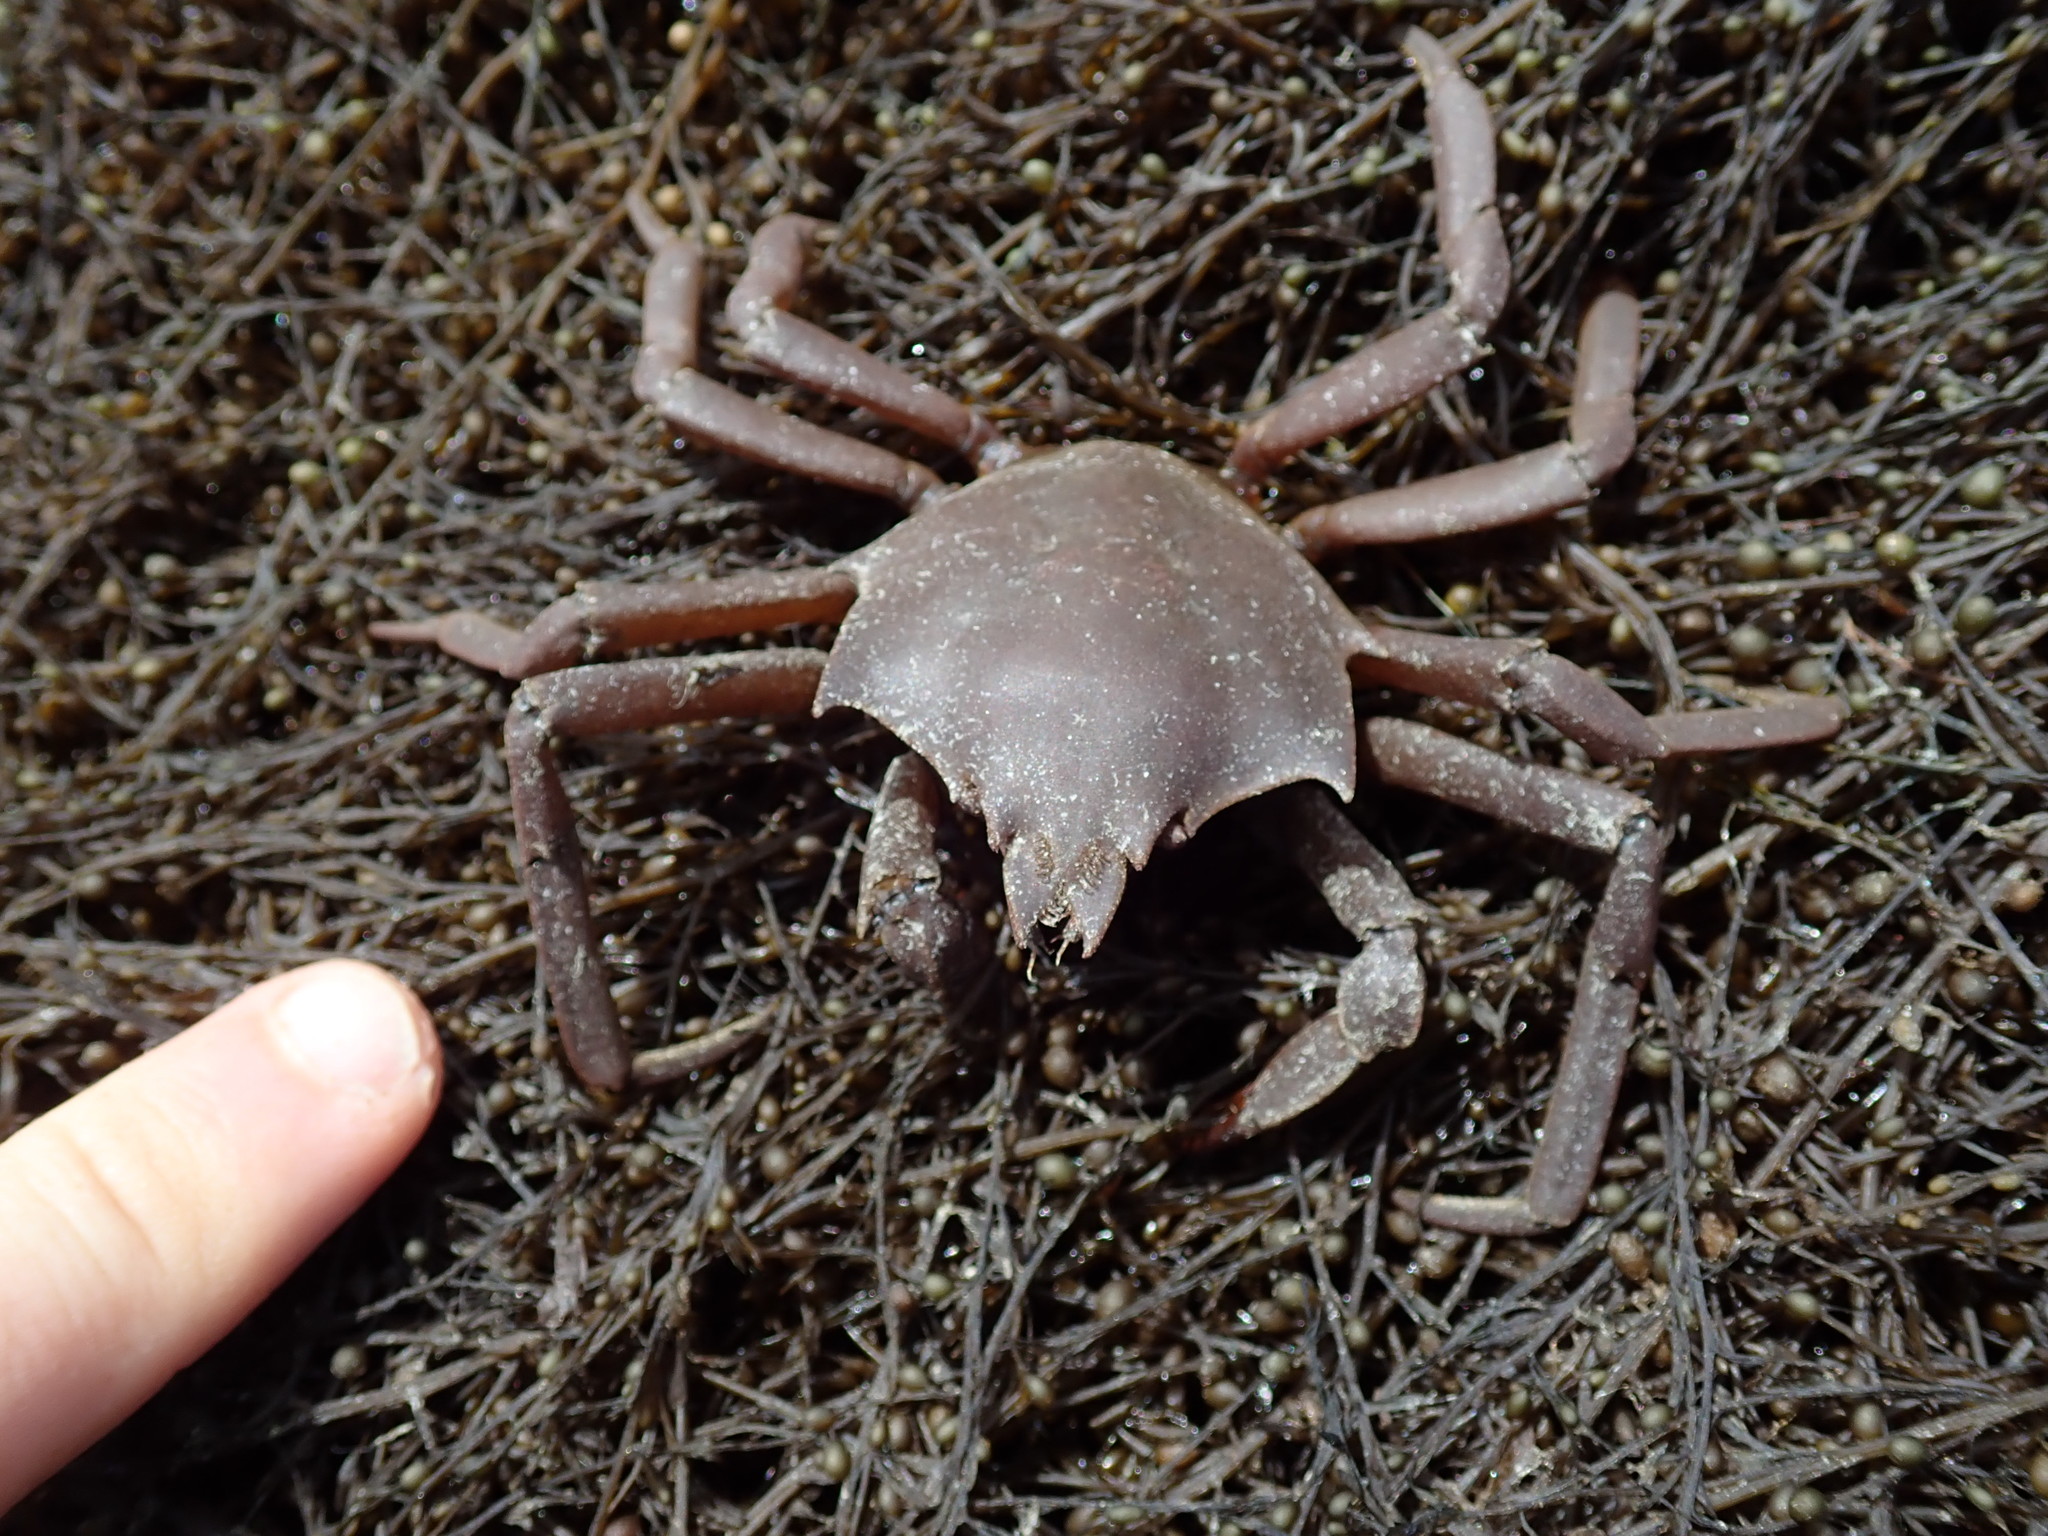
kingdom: Animalia
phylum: Arthropoda
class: Malacostraca
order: Decapoda
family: Epialtidae
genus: Pugettia
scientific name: Pugettia producta
